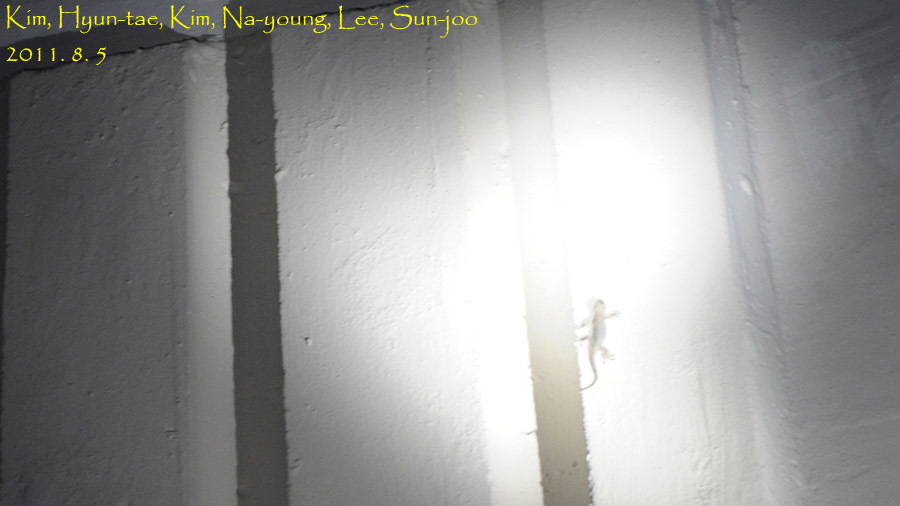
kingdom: Animalia
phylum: Chordata
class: Squamata
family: Gekkonidae
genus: Gekko
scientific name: Gekko japonicus
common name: Schlegel's japanese gecko
